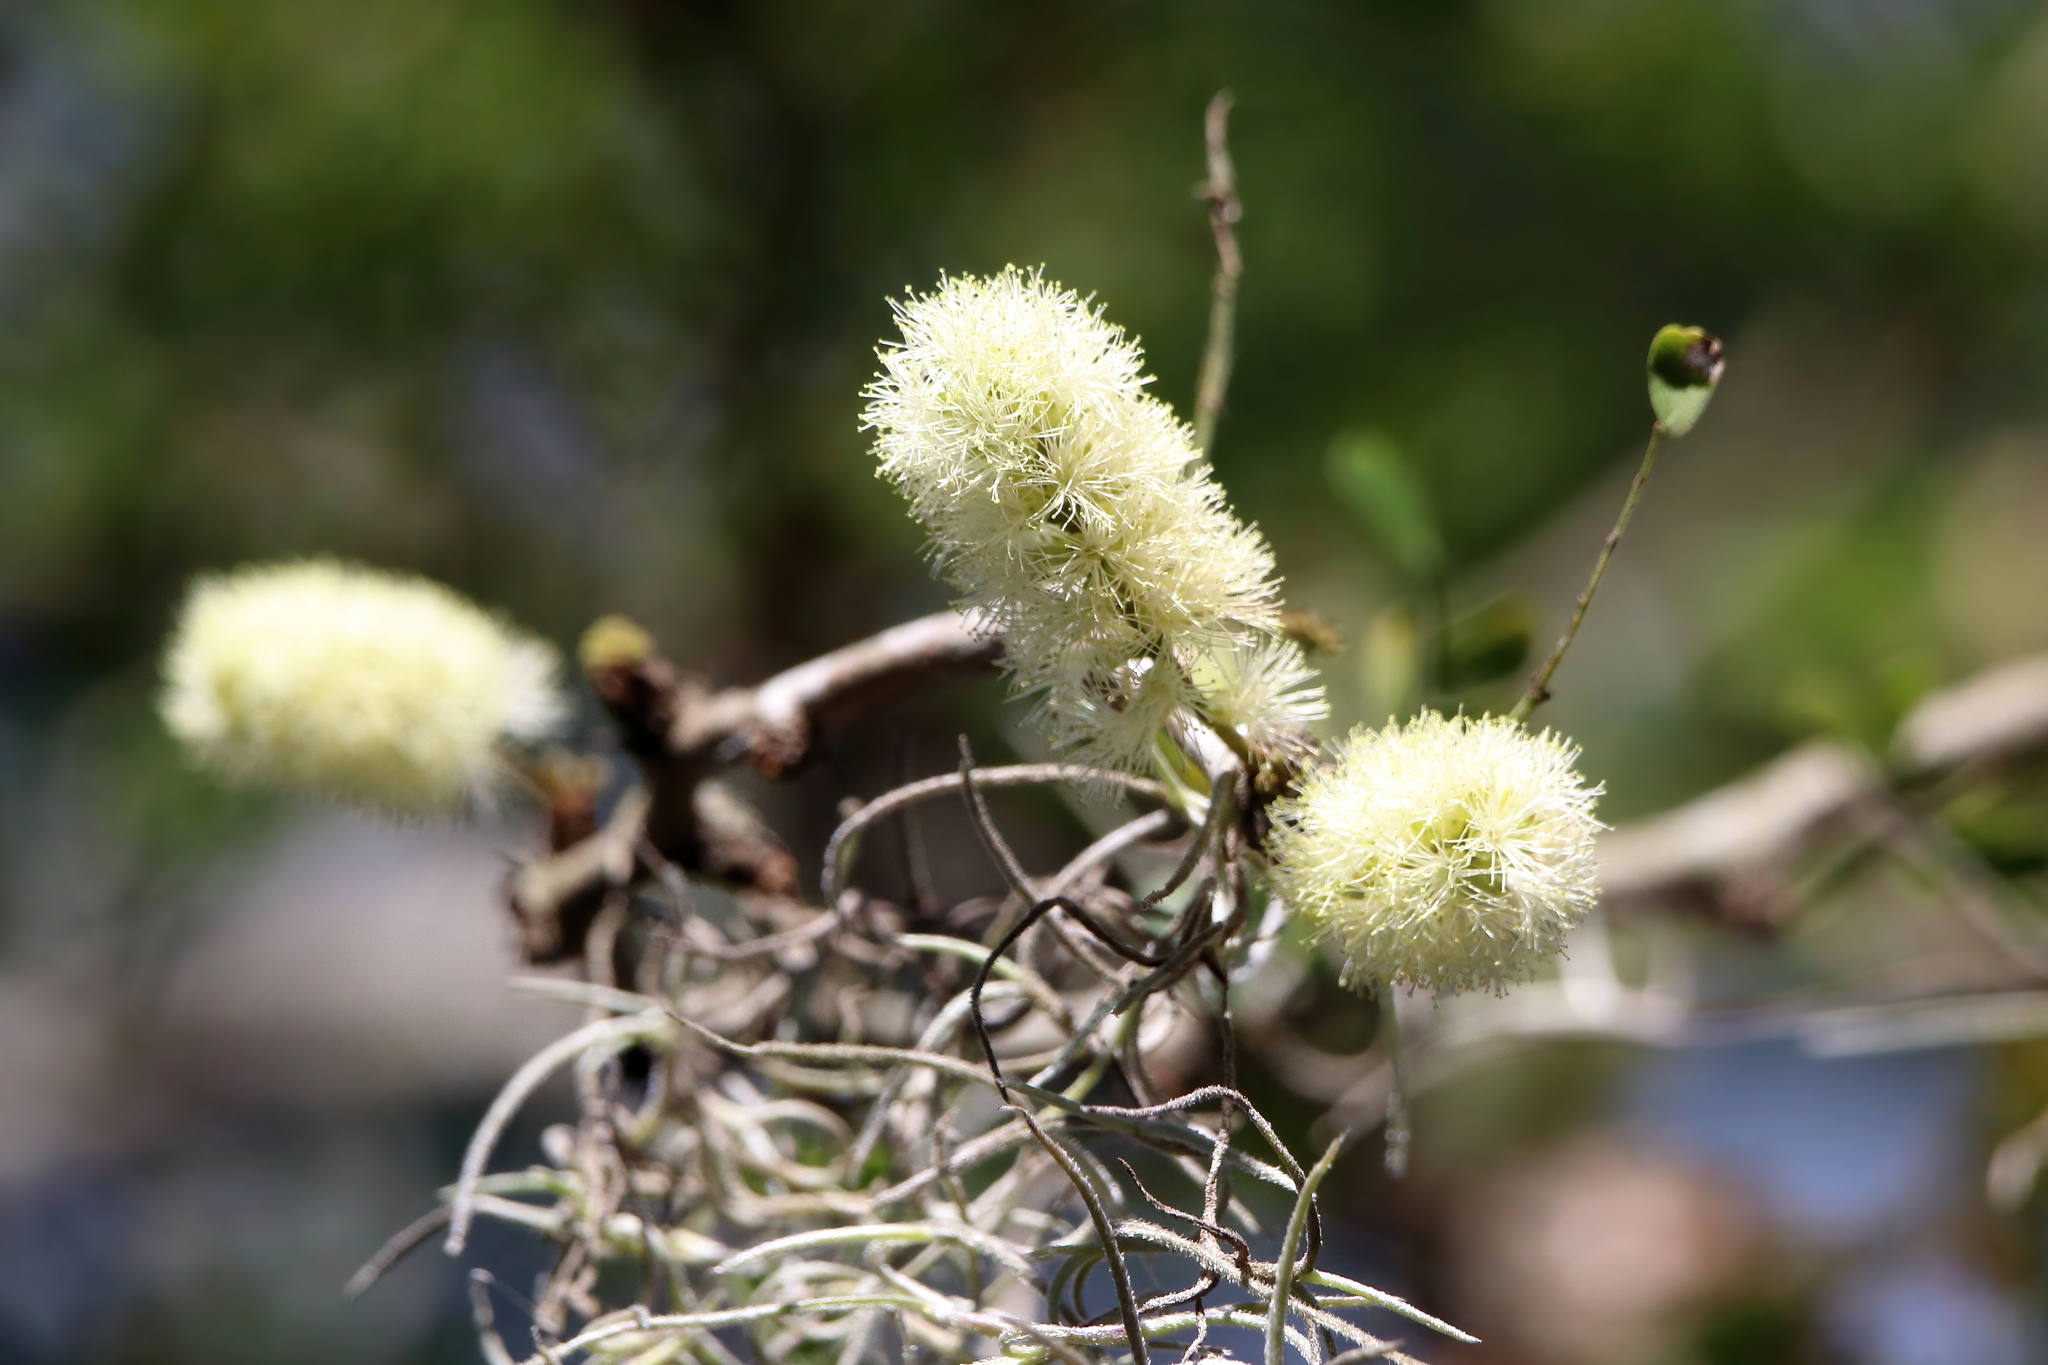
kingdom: Plantae
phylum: Tracheophyta
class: Magnoliopsida
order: Fabales
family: Fabaceae
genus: Ebenopsis
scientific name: Ebenopsis ebano
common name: Ebony blackbead
